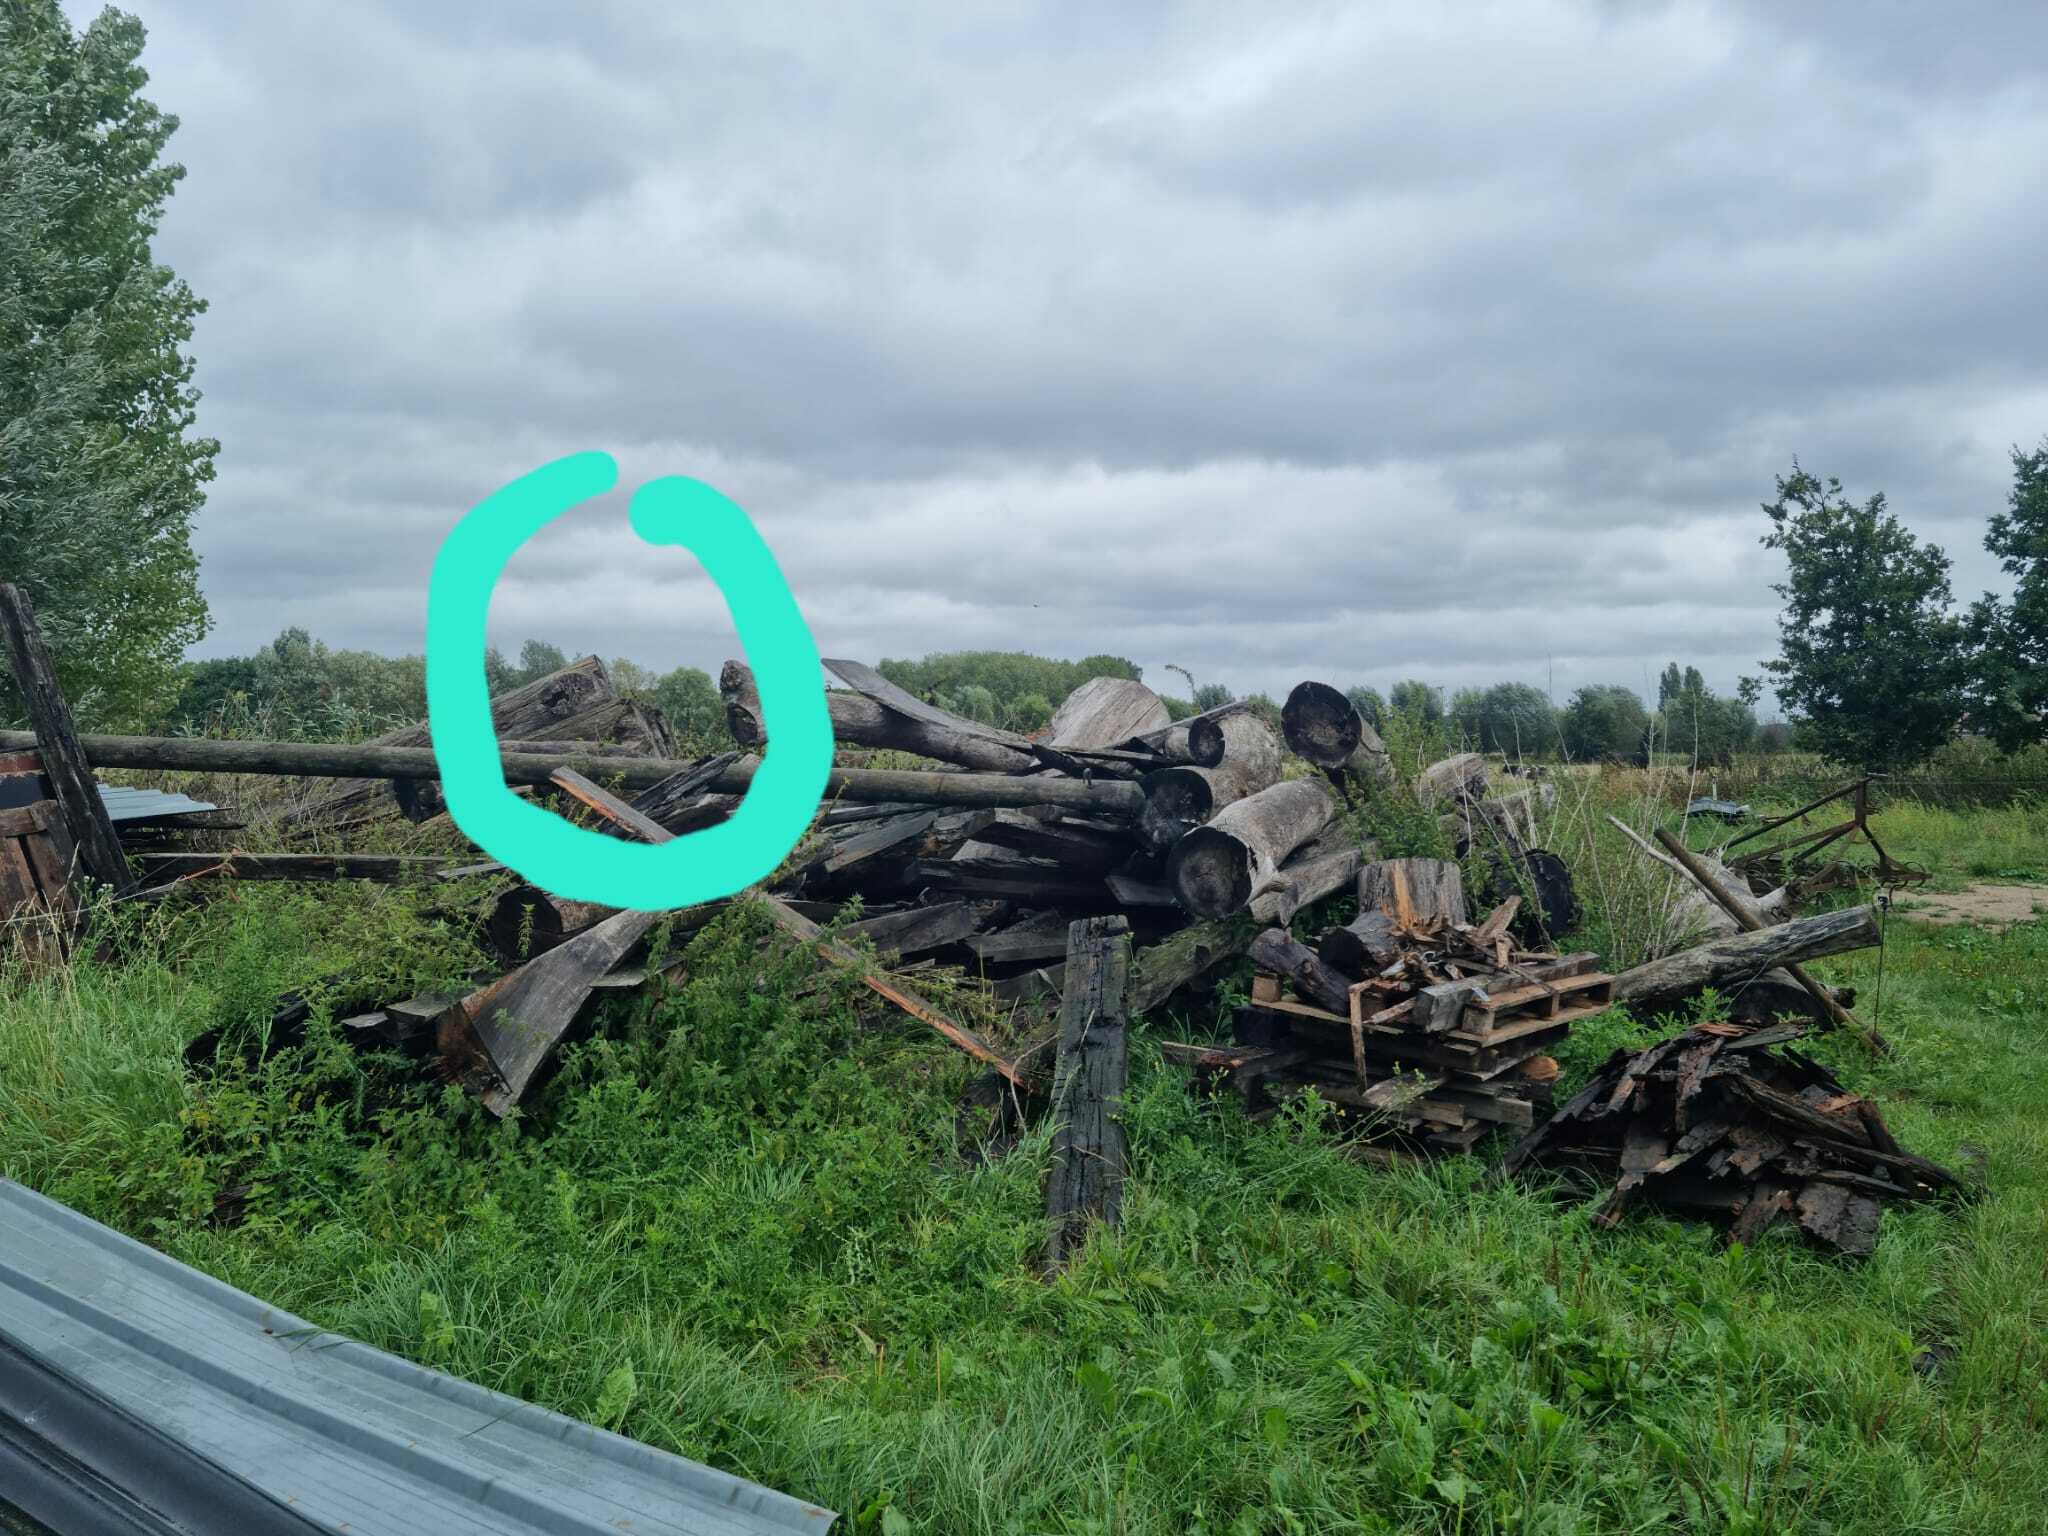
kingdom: Animalia
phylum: Arthropoda
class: Insecta
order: Hymenoptera
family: Vespidae
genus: Vespa
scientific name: Vespa crabro
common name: Hornet
